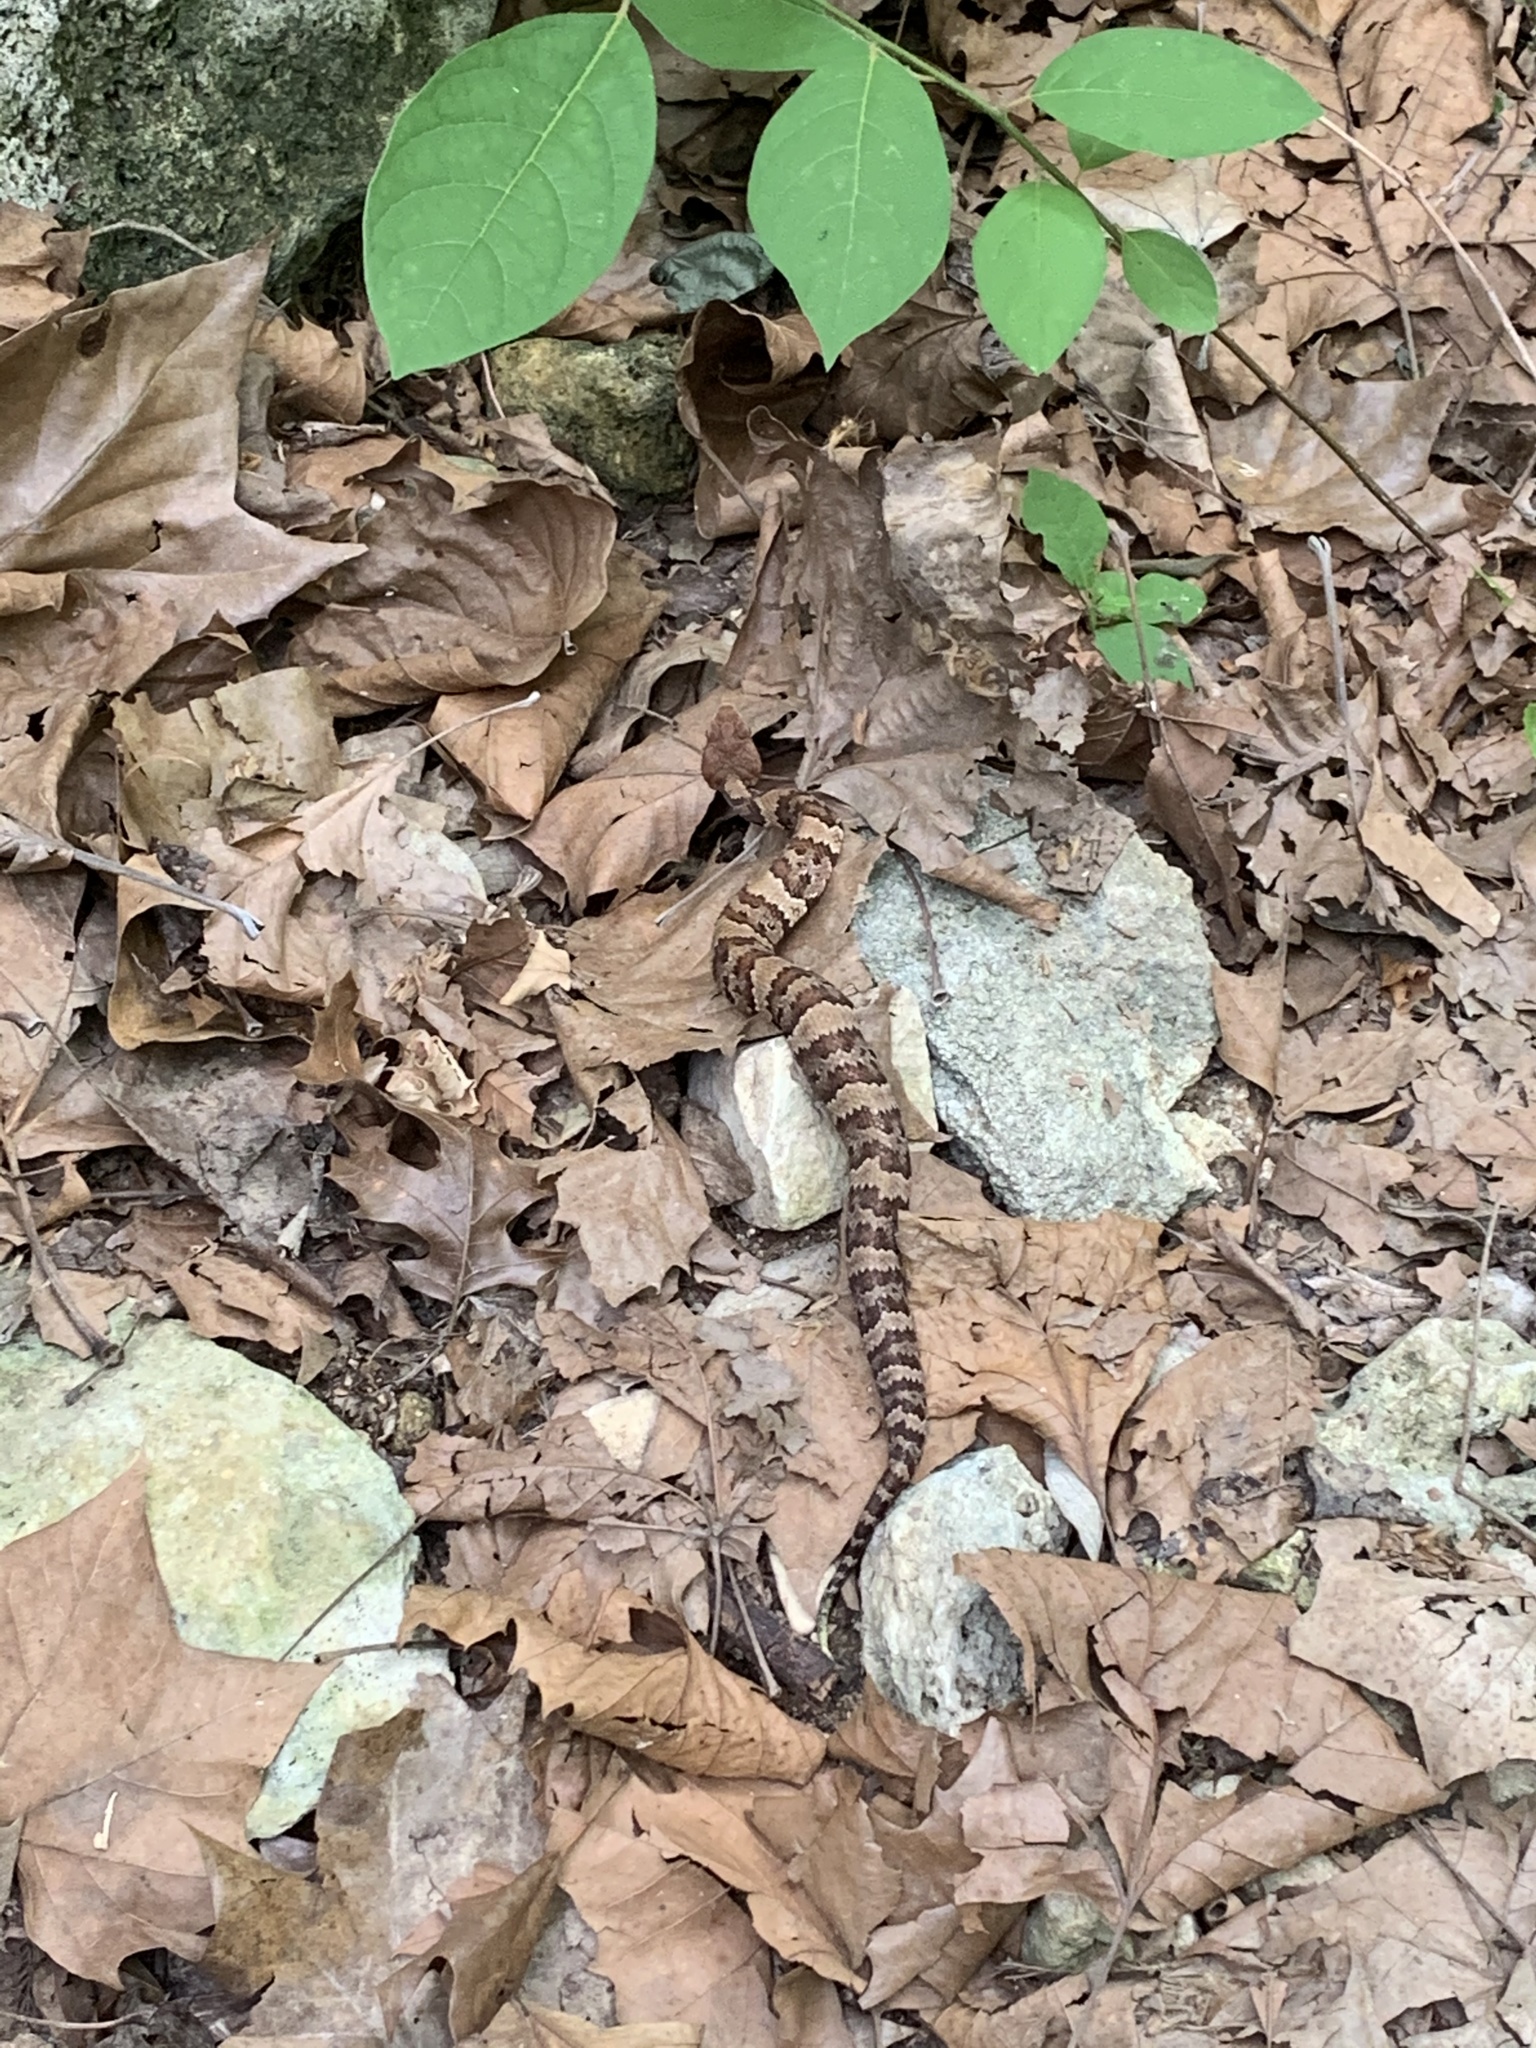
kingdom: Animalia
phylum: Chordata
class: Squamata
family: Viperidae
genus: Agkistrodon
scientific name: Agkistrodon piscivorus
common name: Cottonmouth
